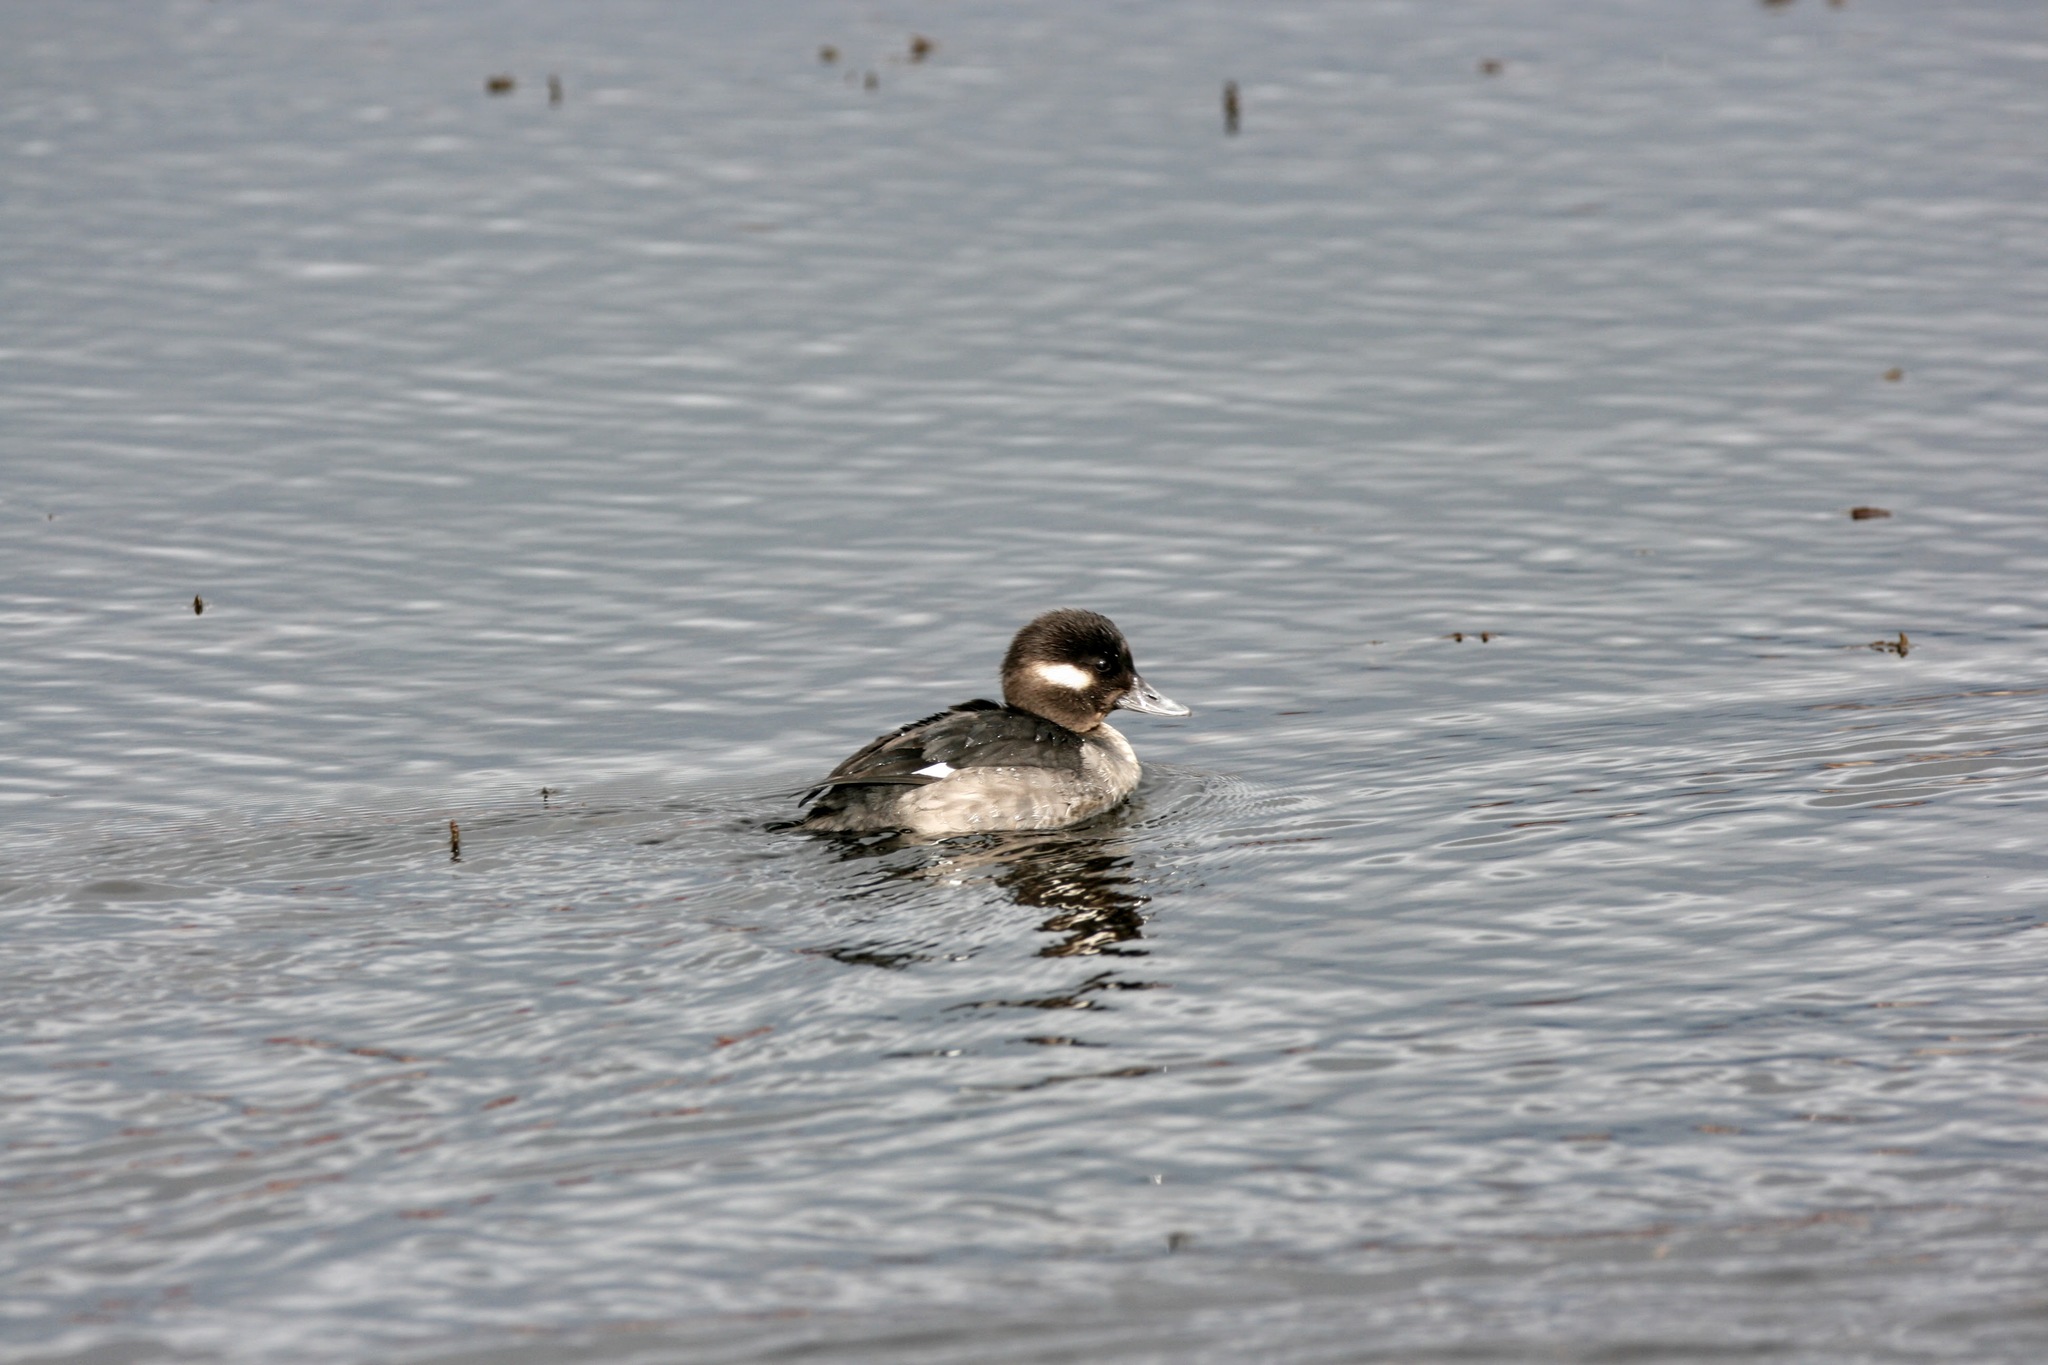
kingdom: Animalia
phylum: Chordata
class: Aves
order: Anseriformes
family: Anatidae
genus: Bucephala
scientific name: Bucephala albeola
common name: Bufflehead
